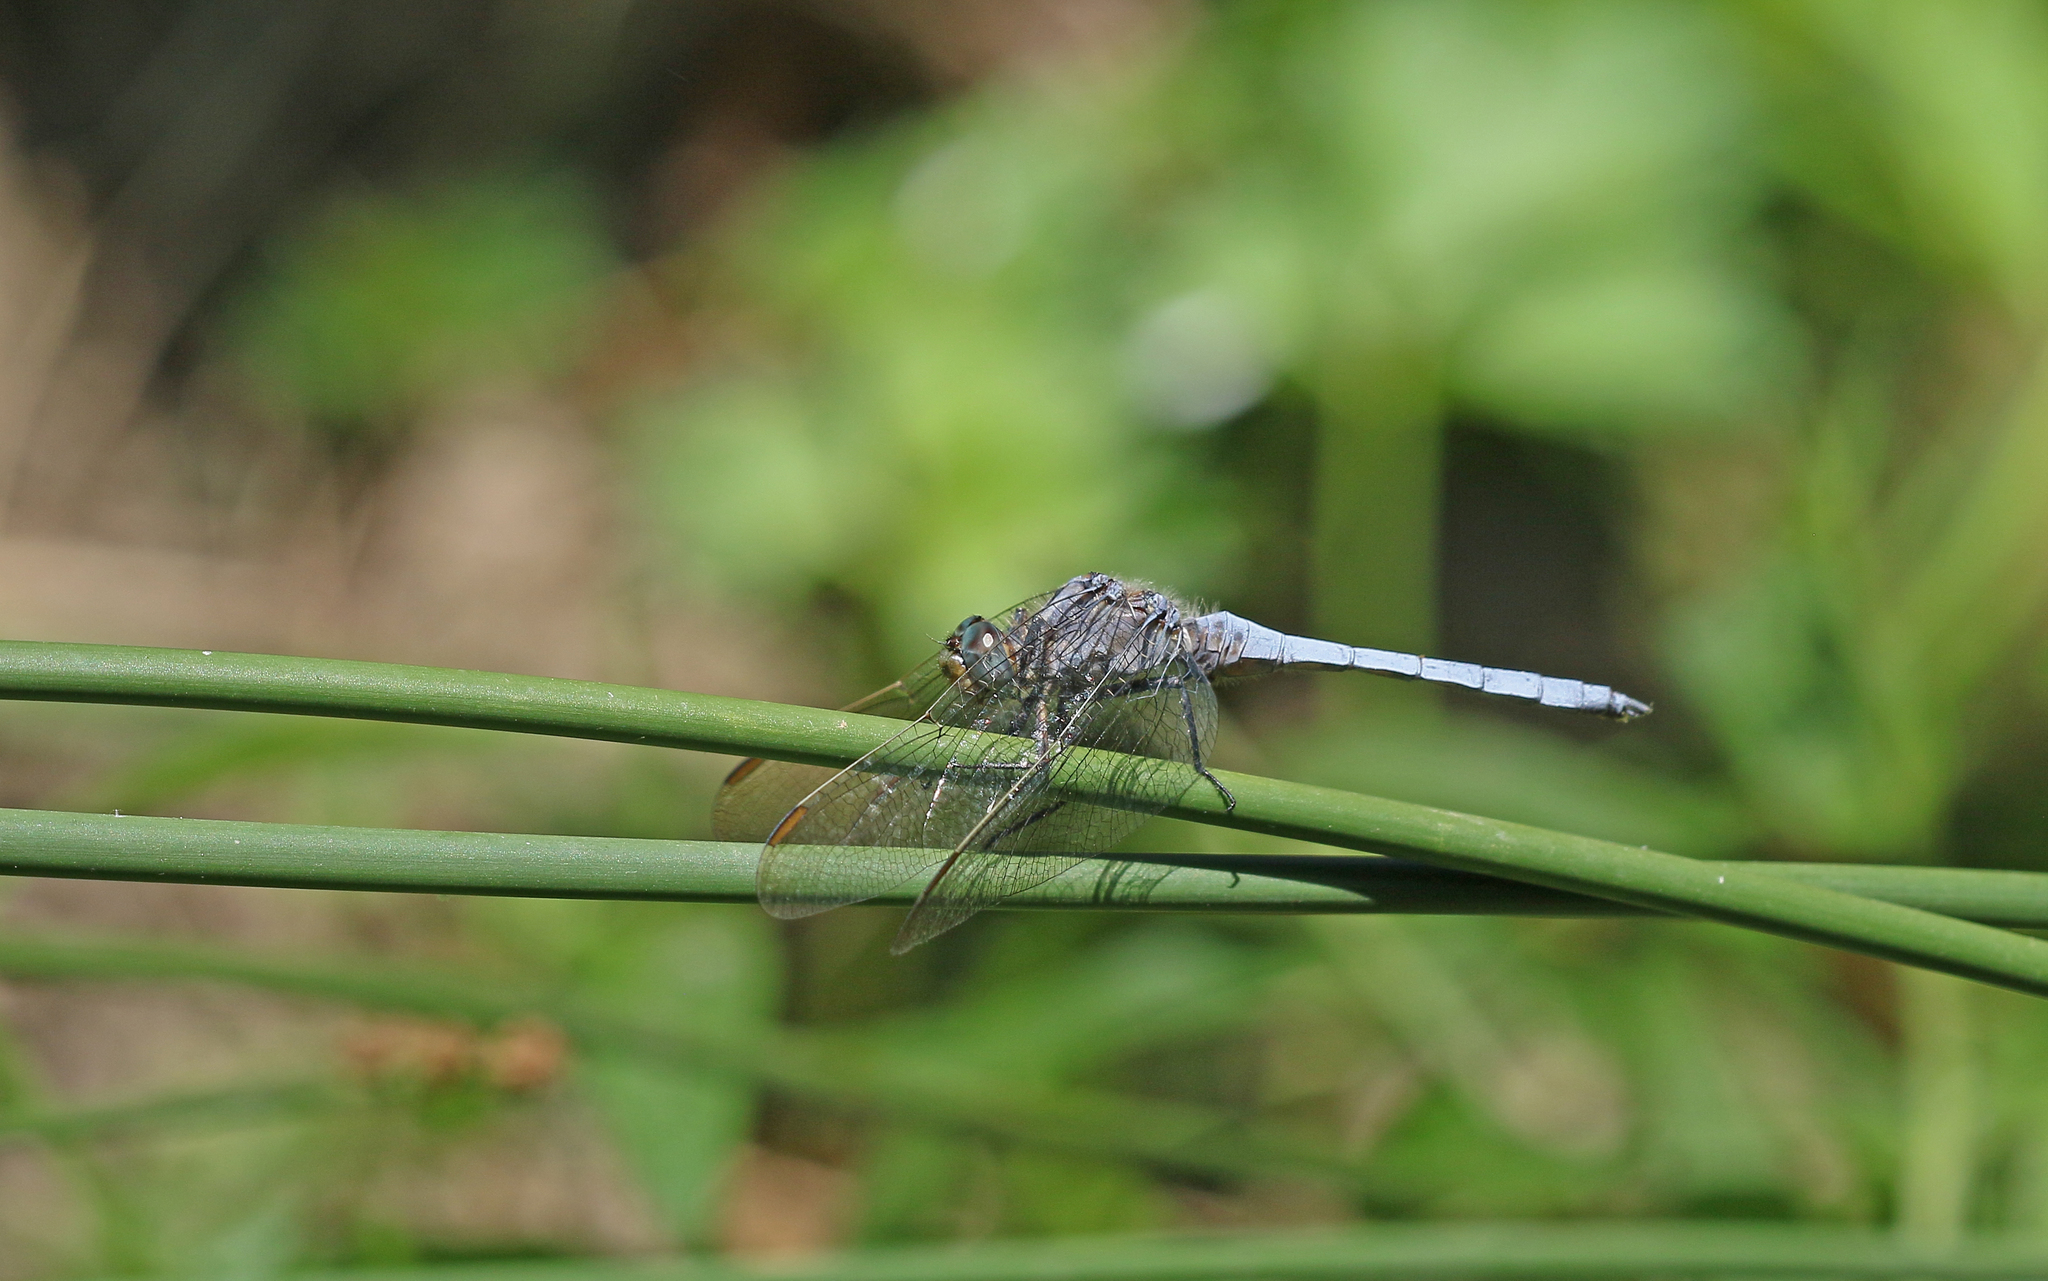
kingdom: Animalia
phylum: Arthropoda
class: Insecta
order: Odonata
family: Libellulidae
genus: Orthetrum
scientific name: Orthetrum coerulescens
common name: Keeled skimmer
